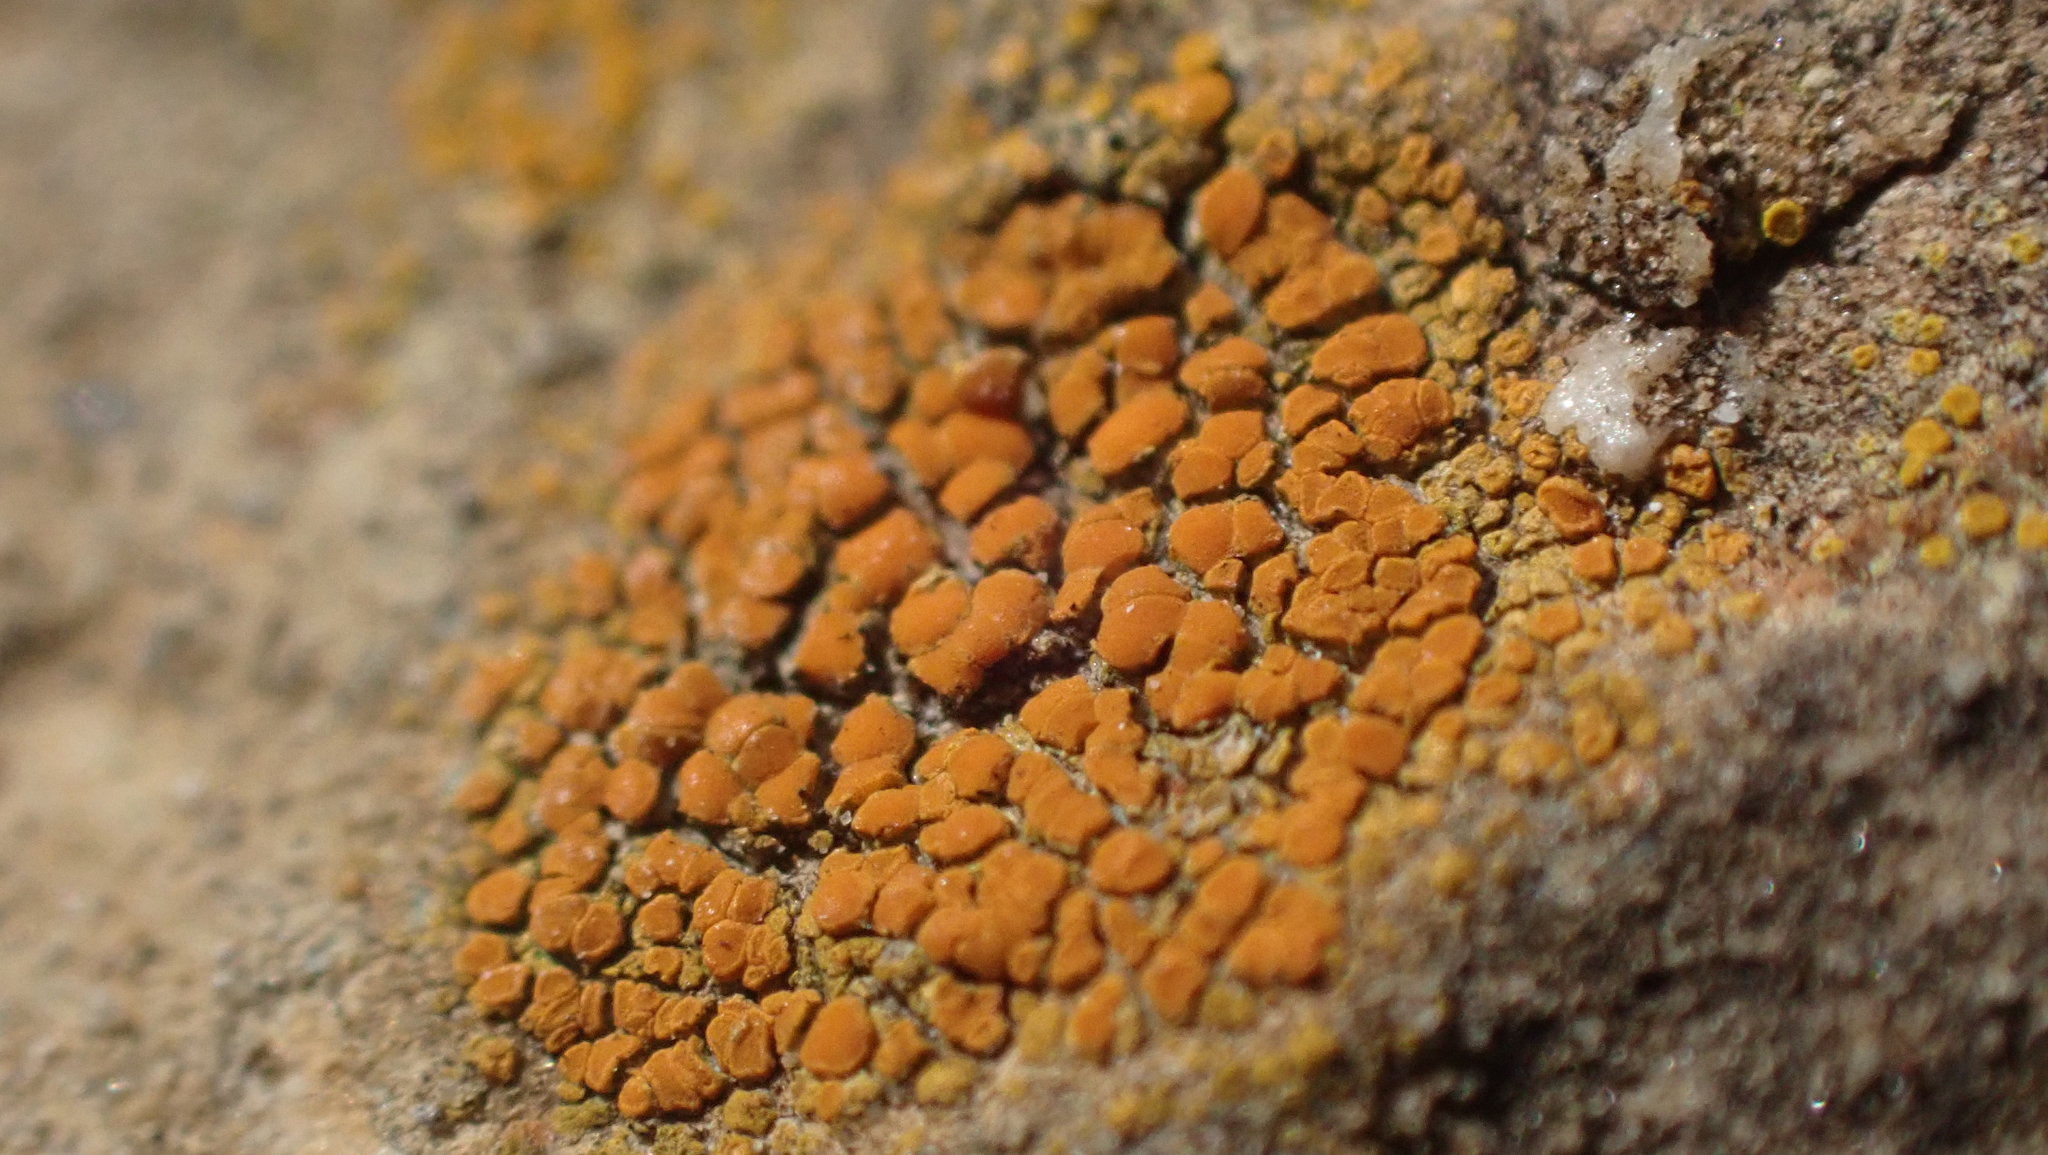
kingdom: Fungi
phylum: Ascomycota
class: Lecanoromycetes
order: Teloschistales
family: Teloschistaceae
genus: Xanthocarpia
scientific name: Xanthocarpia feracissima
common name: Sidewalk firedot
